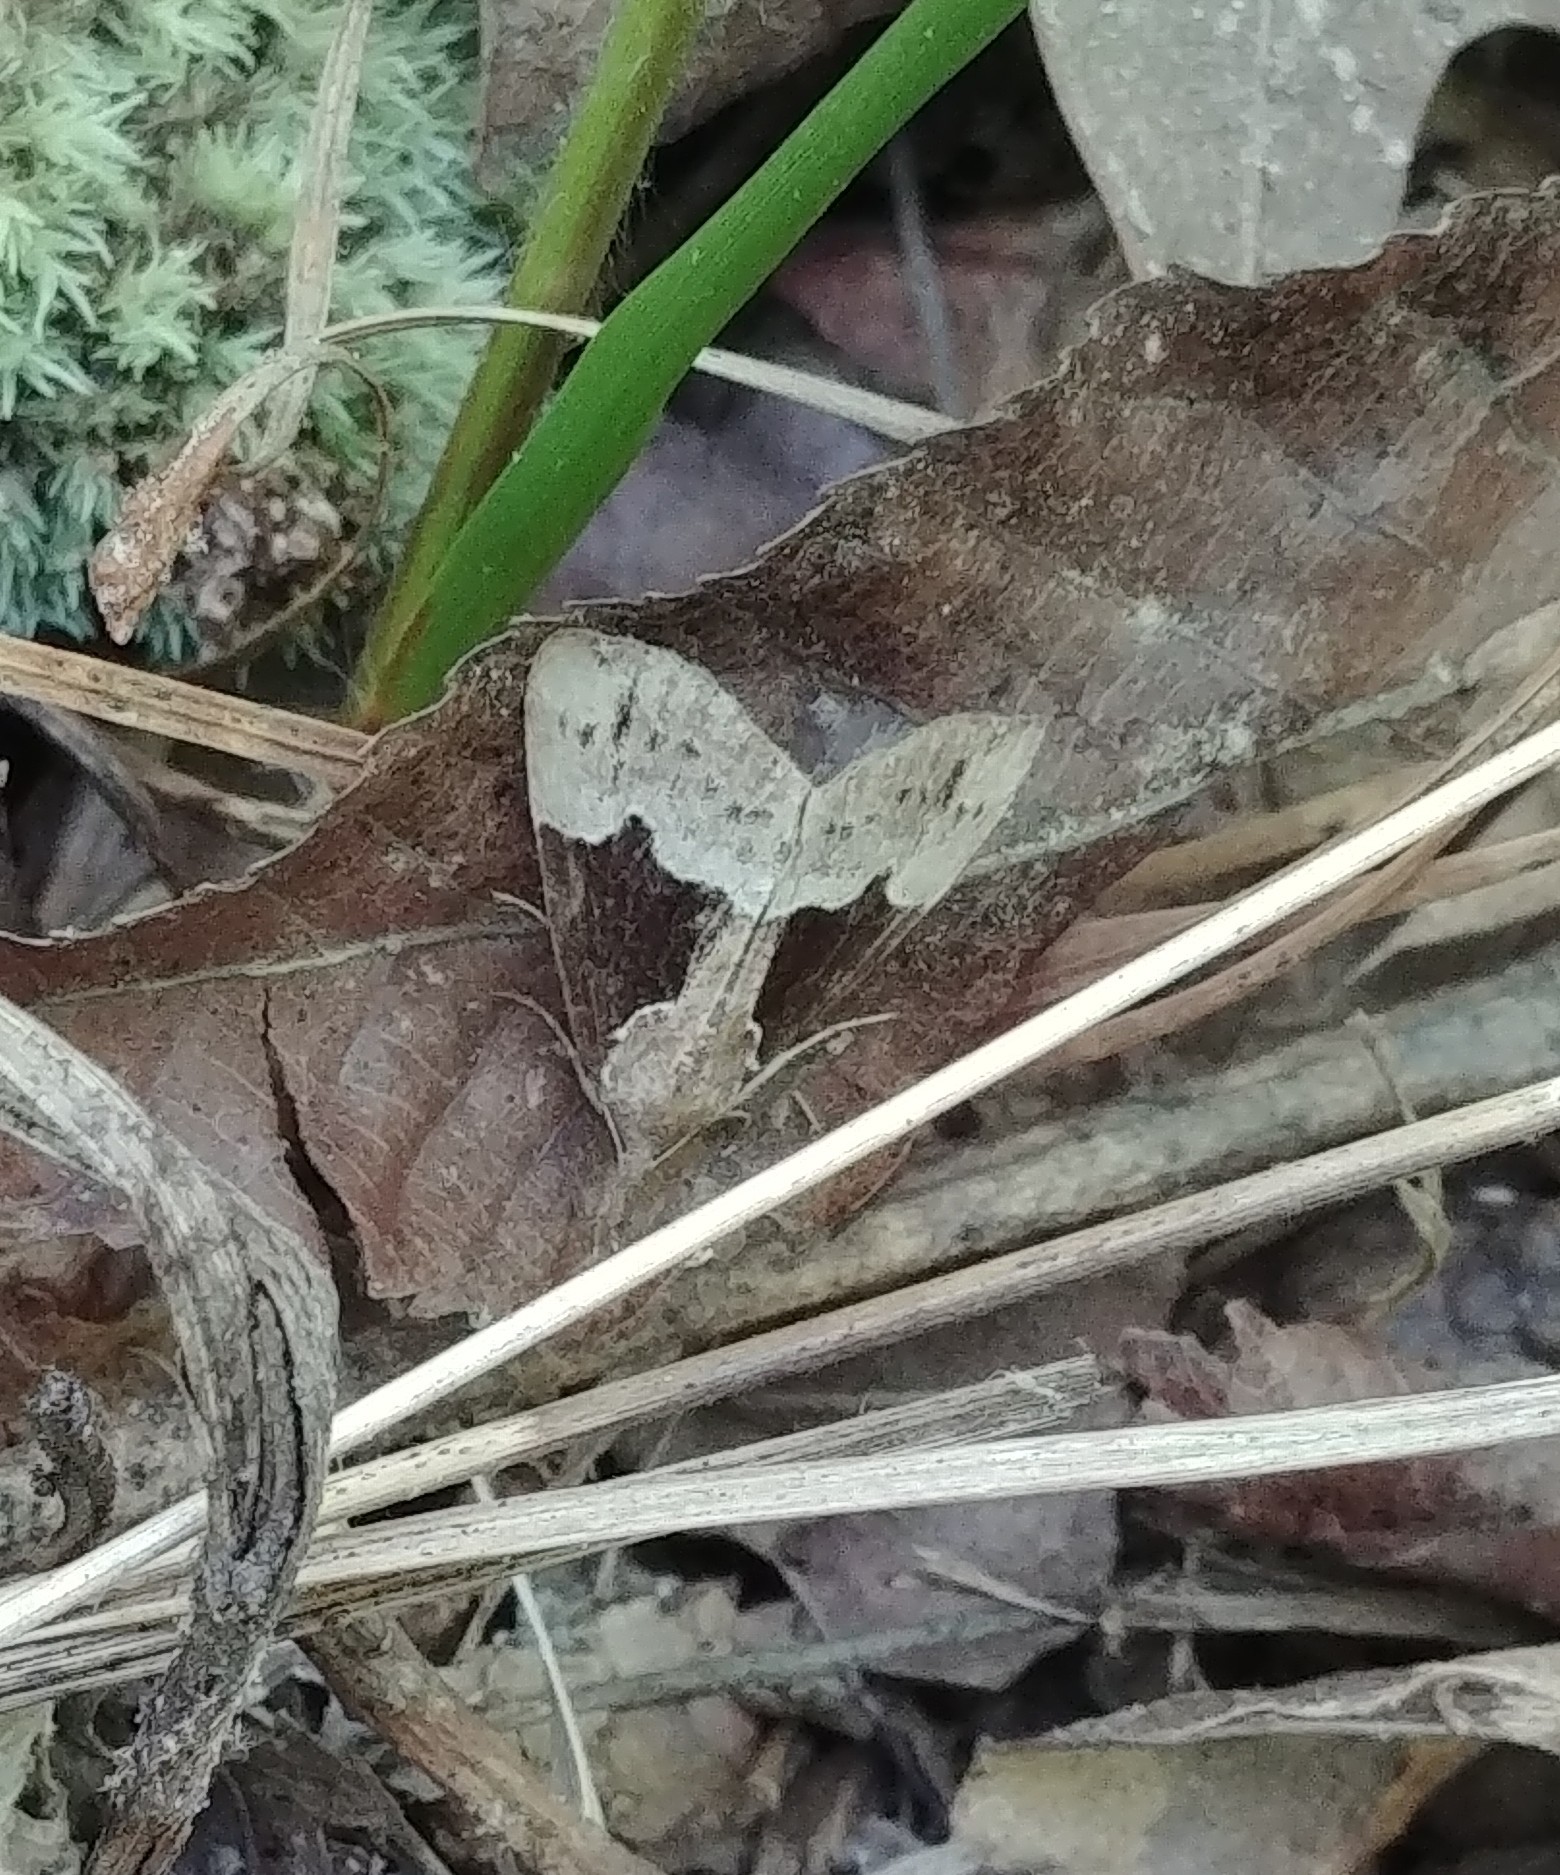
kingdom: Animalia
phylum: Arthropoda
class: Insecta
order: Lepidoptera
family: Erebidae
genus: Hypena
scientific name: Hypena bijugalis
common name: Dimorphic bomolocha moth
